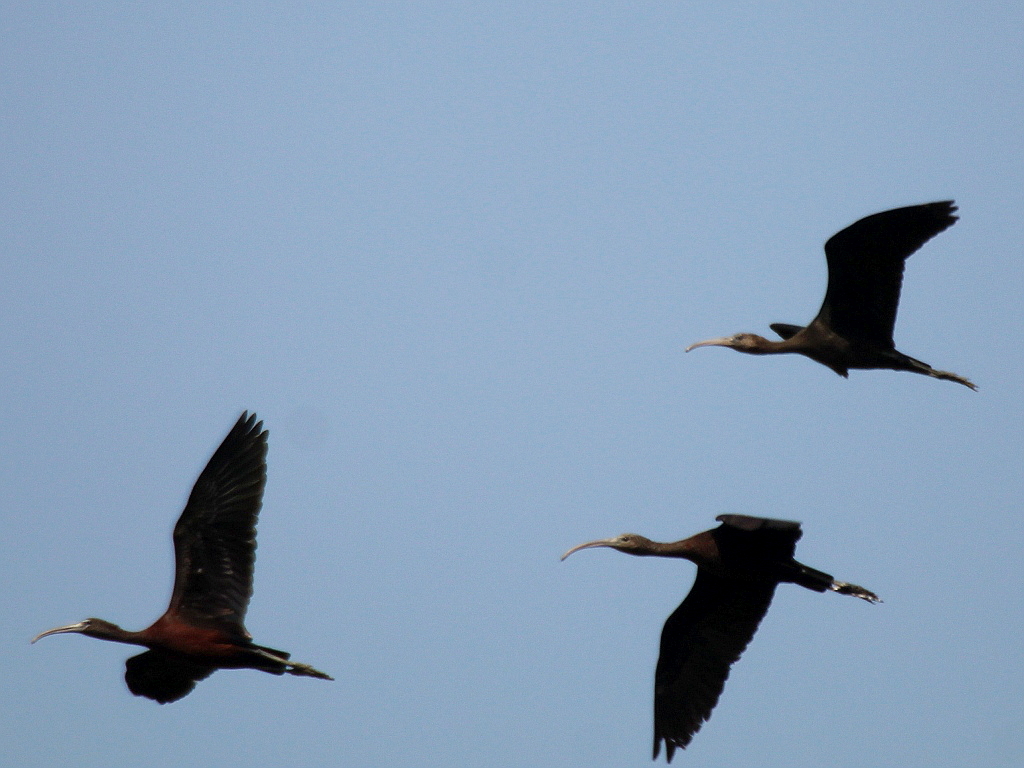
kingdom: Animalia
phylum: Chordata
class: Aves
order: Pelecaniformes
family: Threskiornithidae
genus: Plegadis
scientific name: Plegadis falcinellus
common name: Glossy ibis
